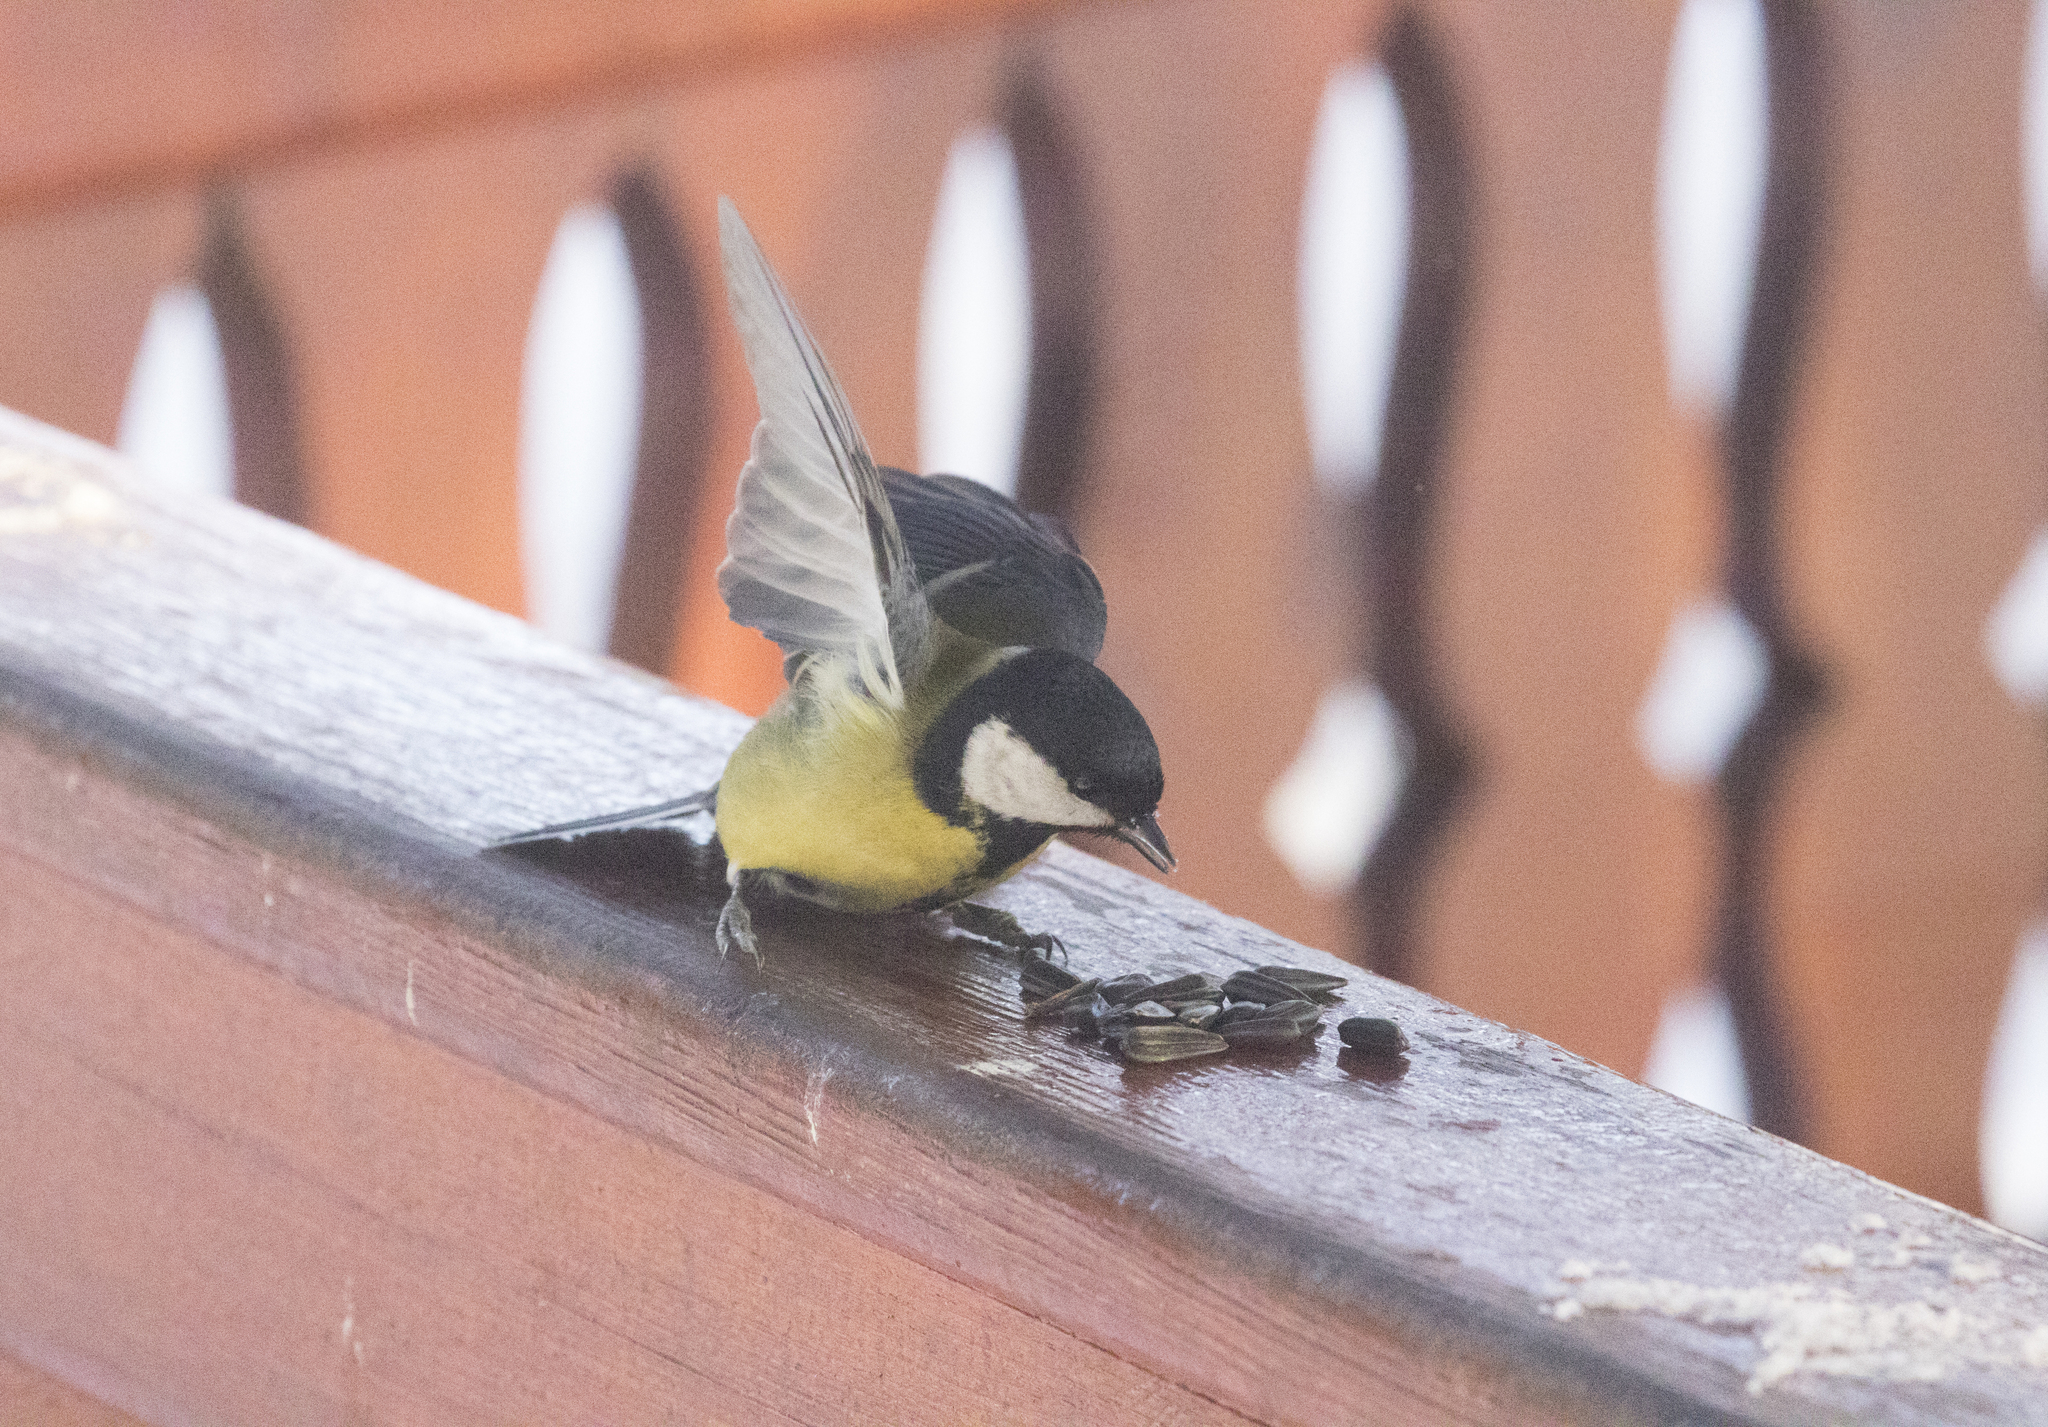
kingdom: Animalia
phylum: Chordata
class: Aves
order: Passeriformes
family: Paridae
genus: Parus
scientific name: Parus major
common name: Great tit
